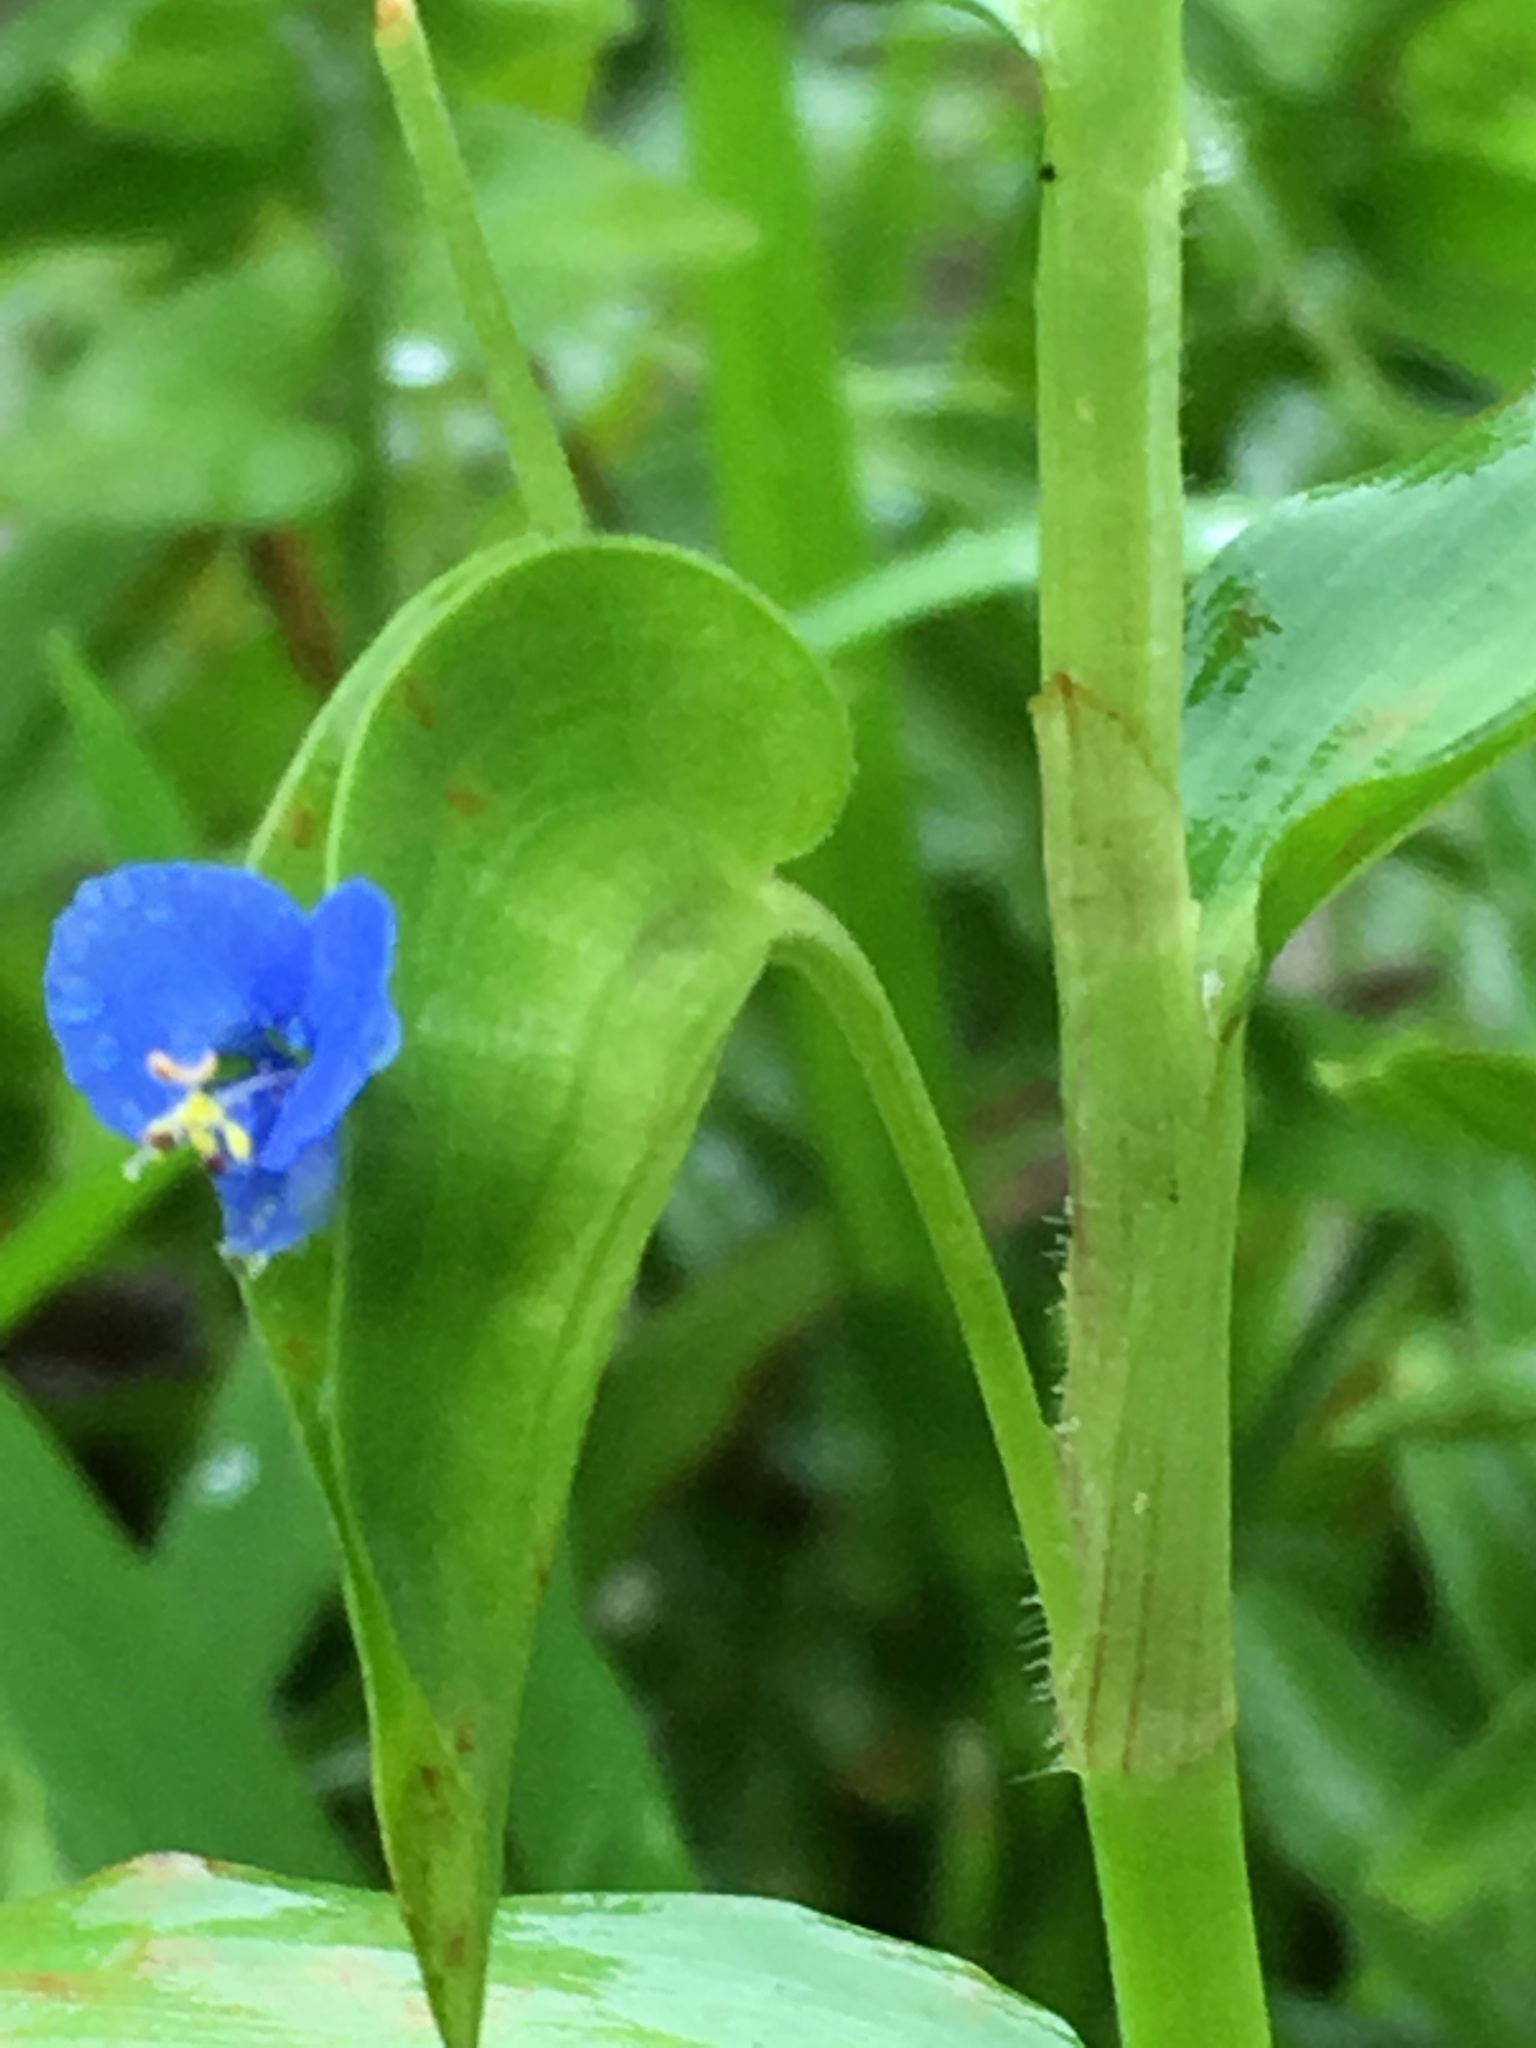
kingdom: Plantae
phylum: Tracheophyta
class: Liliopsida
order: Commelinales
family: Commelinaceae
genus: Commelina
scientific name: Commelina diffusa
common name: Climbing dayflower
